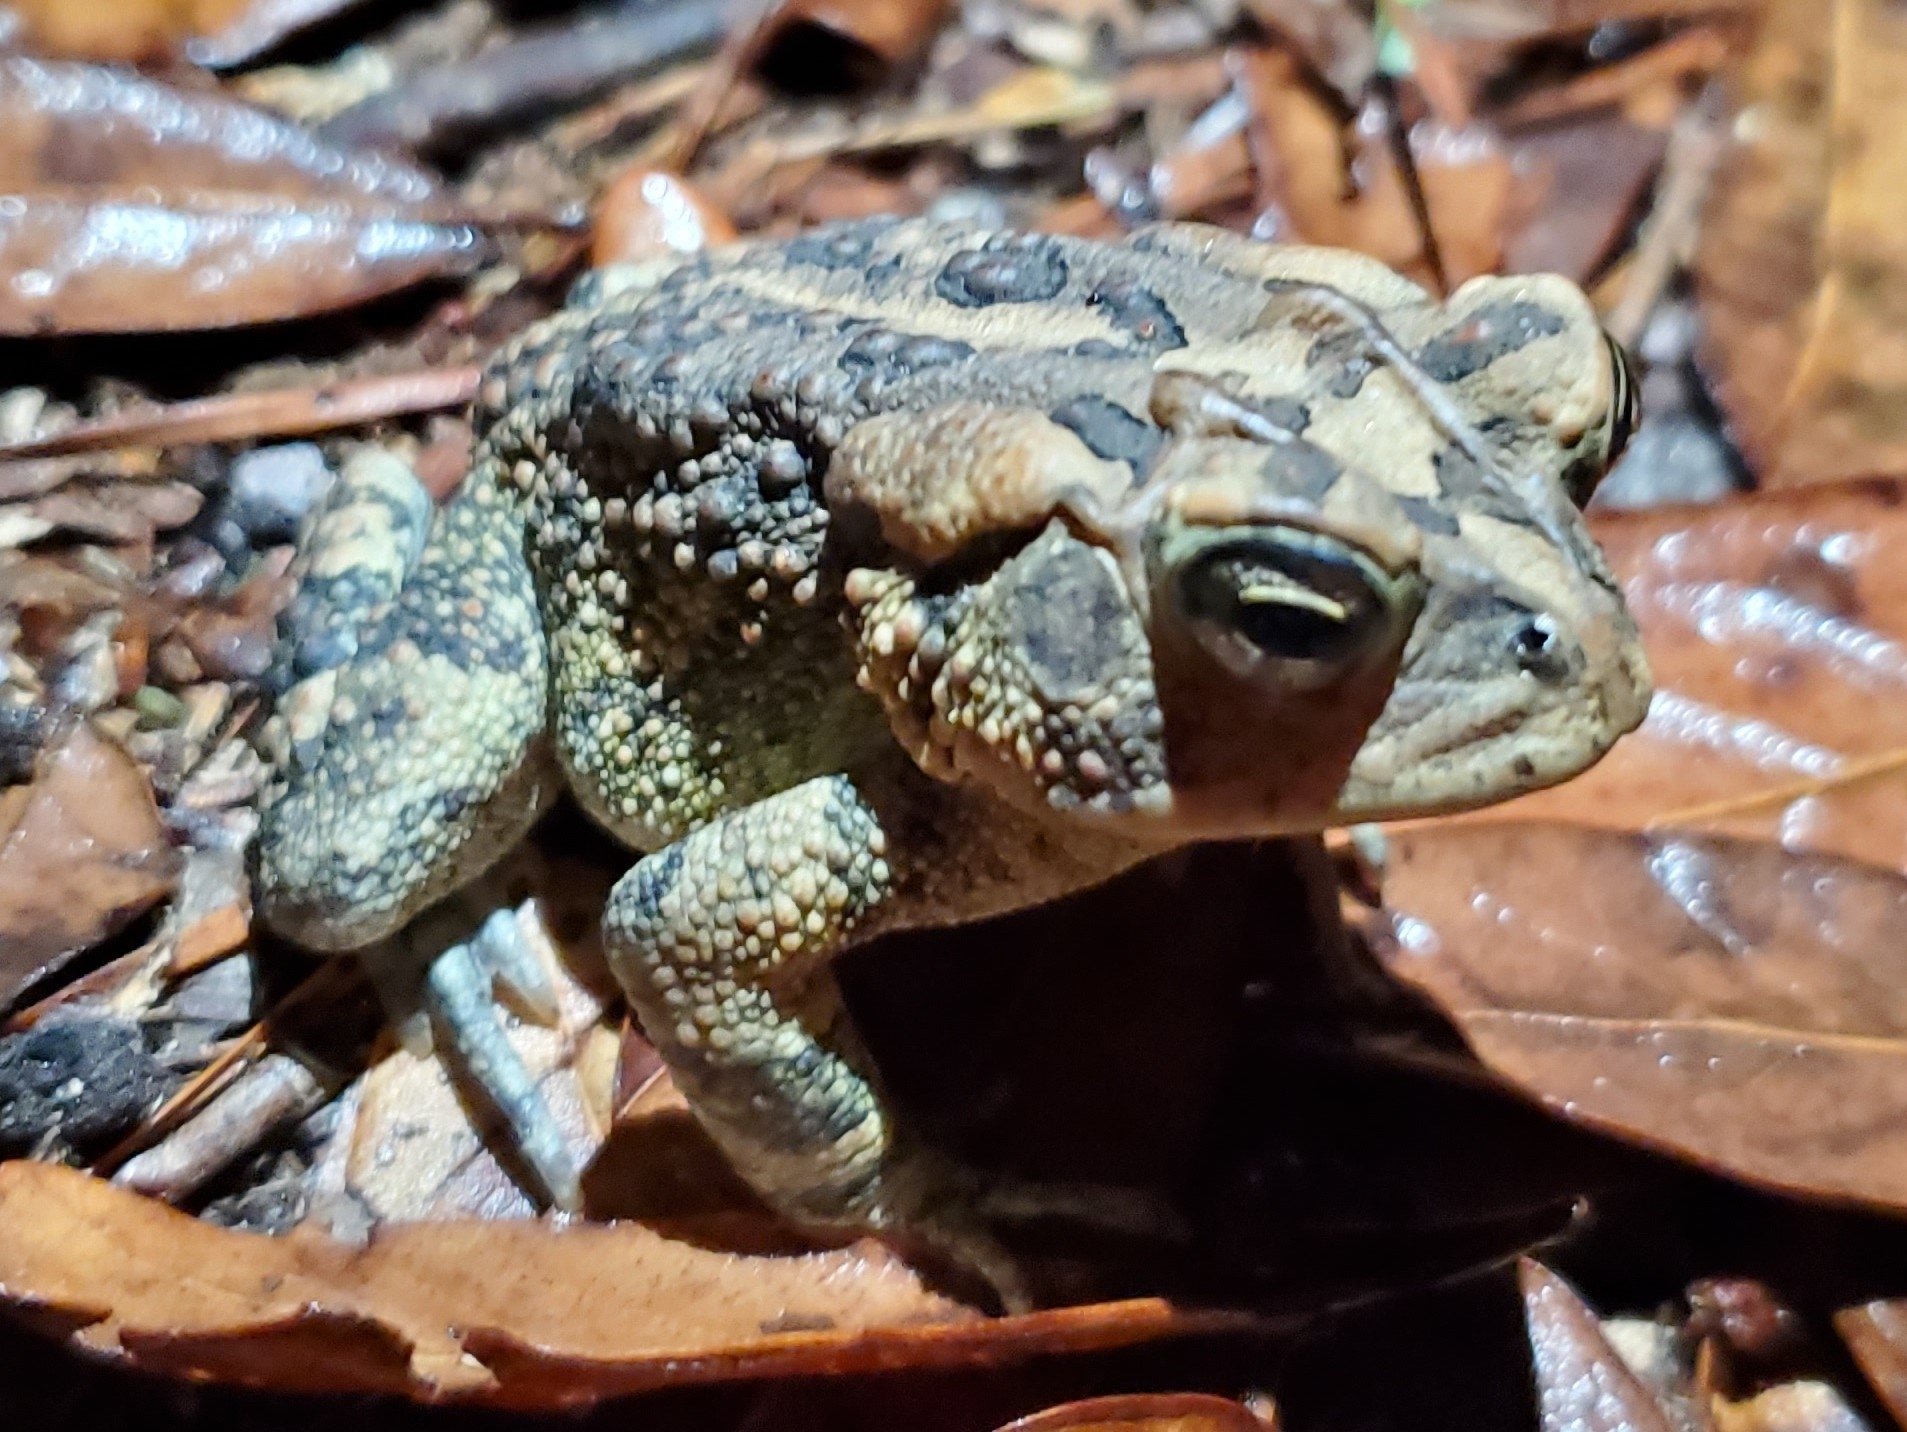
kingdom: Animalia
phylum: Chordata
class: Amphibia
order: Anura
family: Bufonidae
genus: Anaxyrus
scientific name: Anaxyrus terrestris
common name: Southern toad
